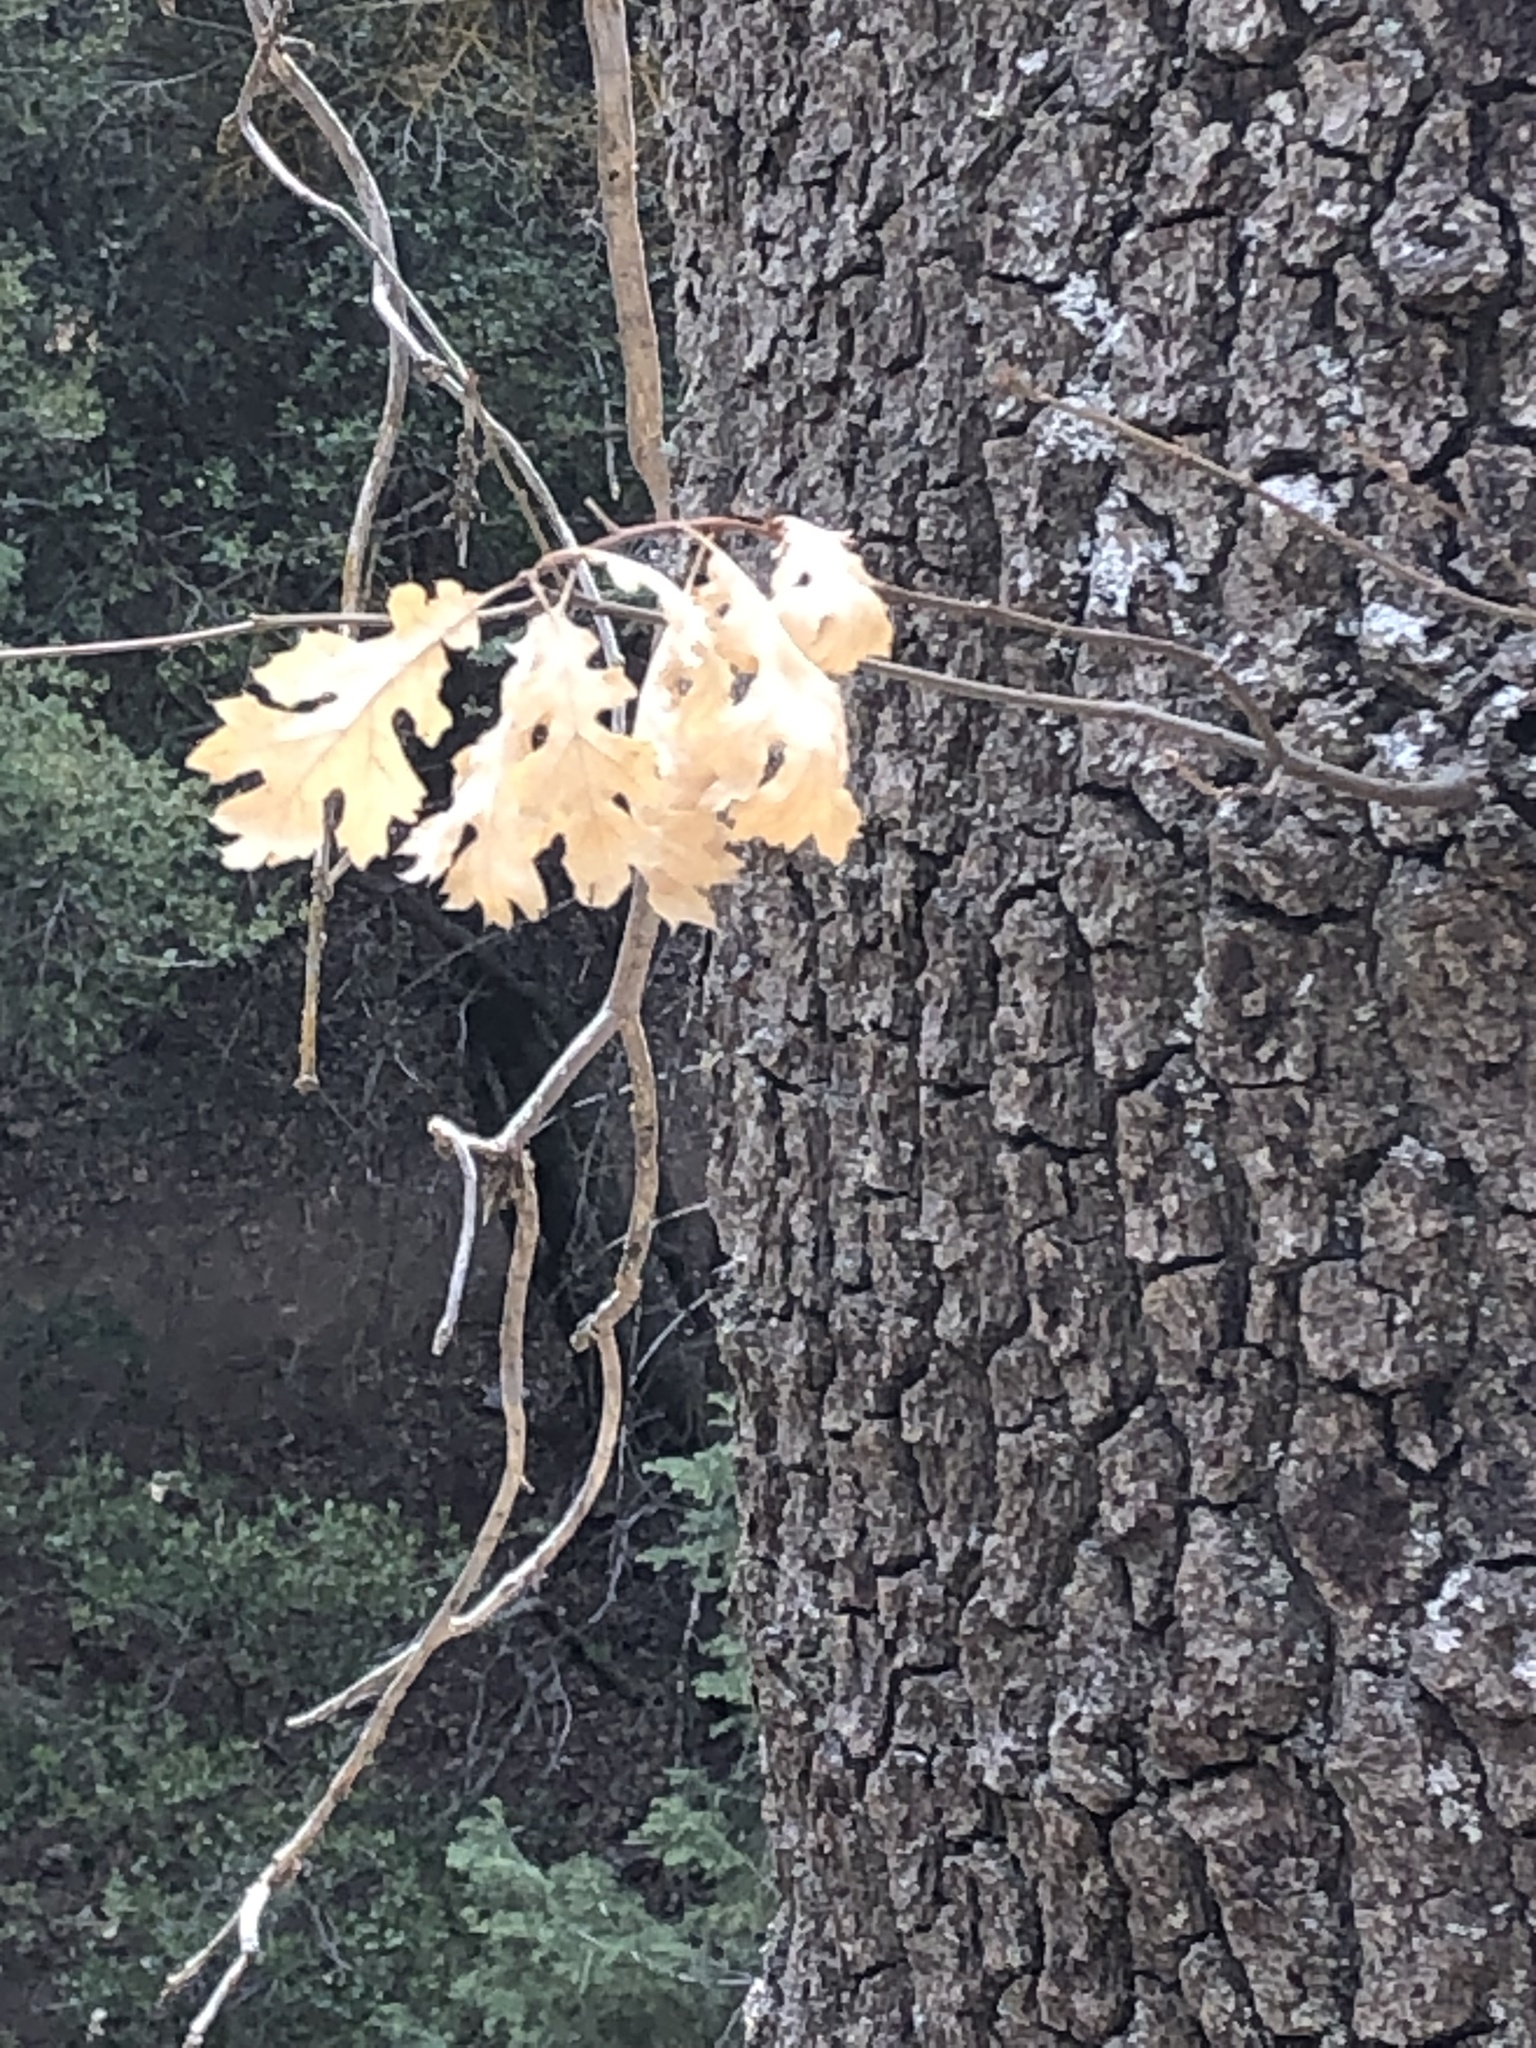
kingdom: Plantae
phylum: Tracheophyta
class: Magnoliopsida
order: Fagales
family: Fagaceae
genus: Quercus
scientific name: Quercus kelloggii
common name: California black oak
